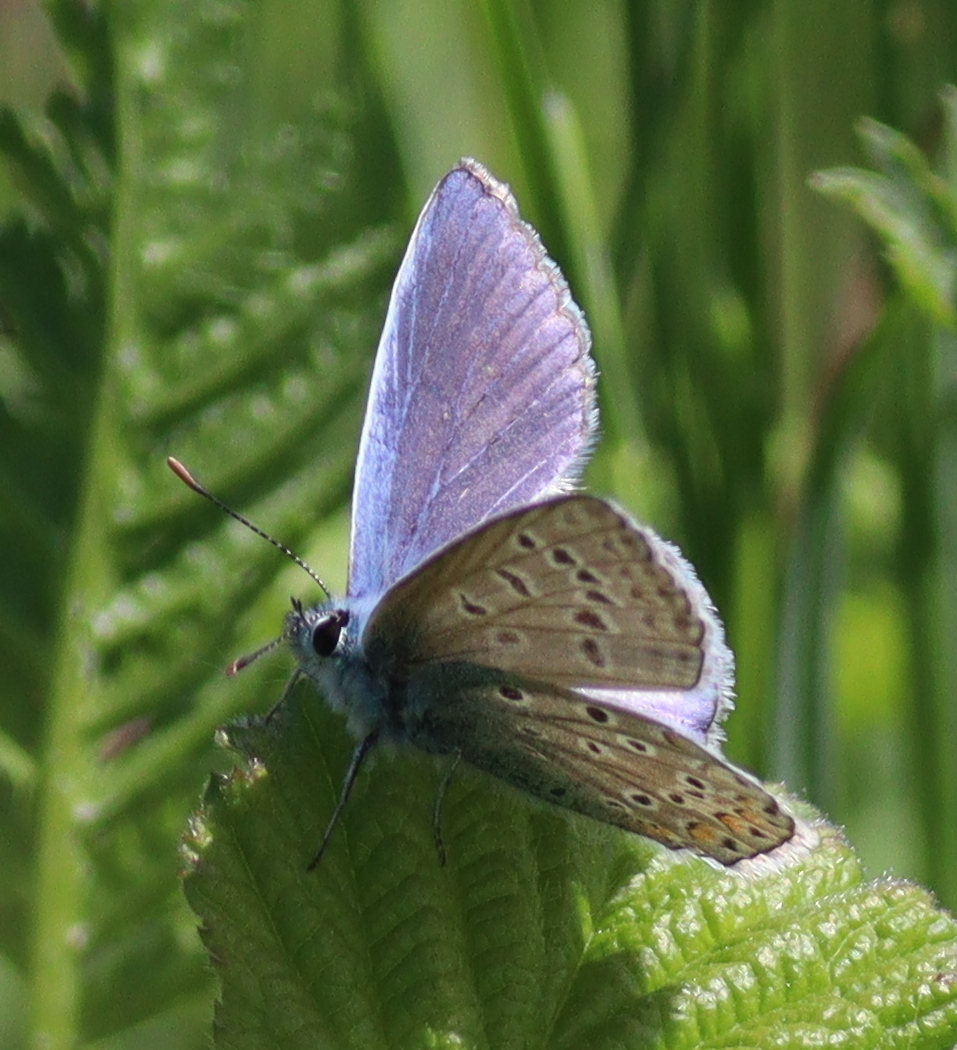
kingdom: Animalia
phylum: Arthropoda
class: Insecta
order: Lepidoptera
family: Lycaenidae
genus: Polyommatus
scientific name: Polyommatus icarus
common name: Common blue
